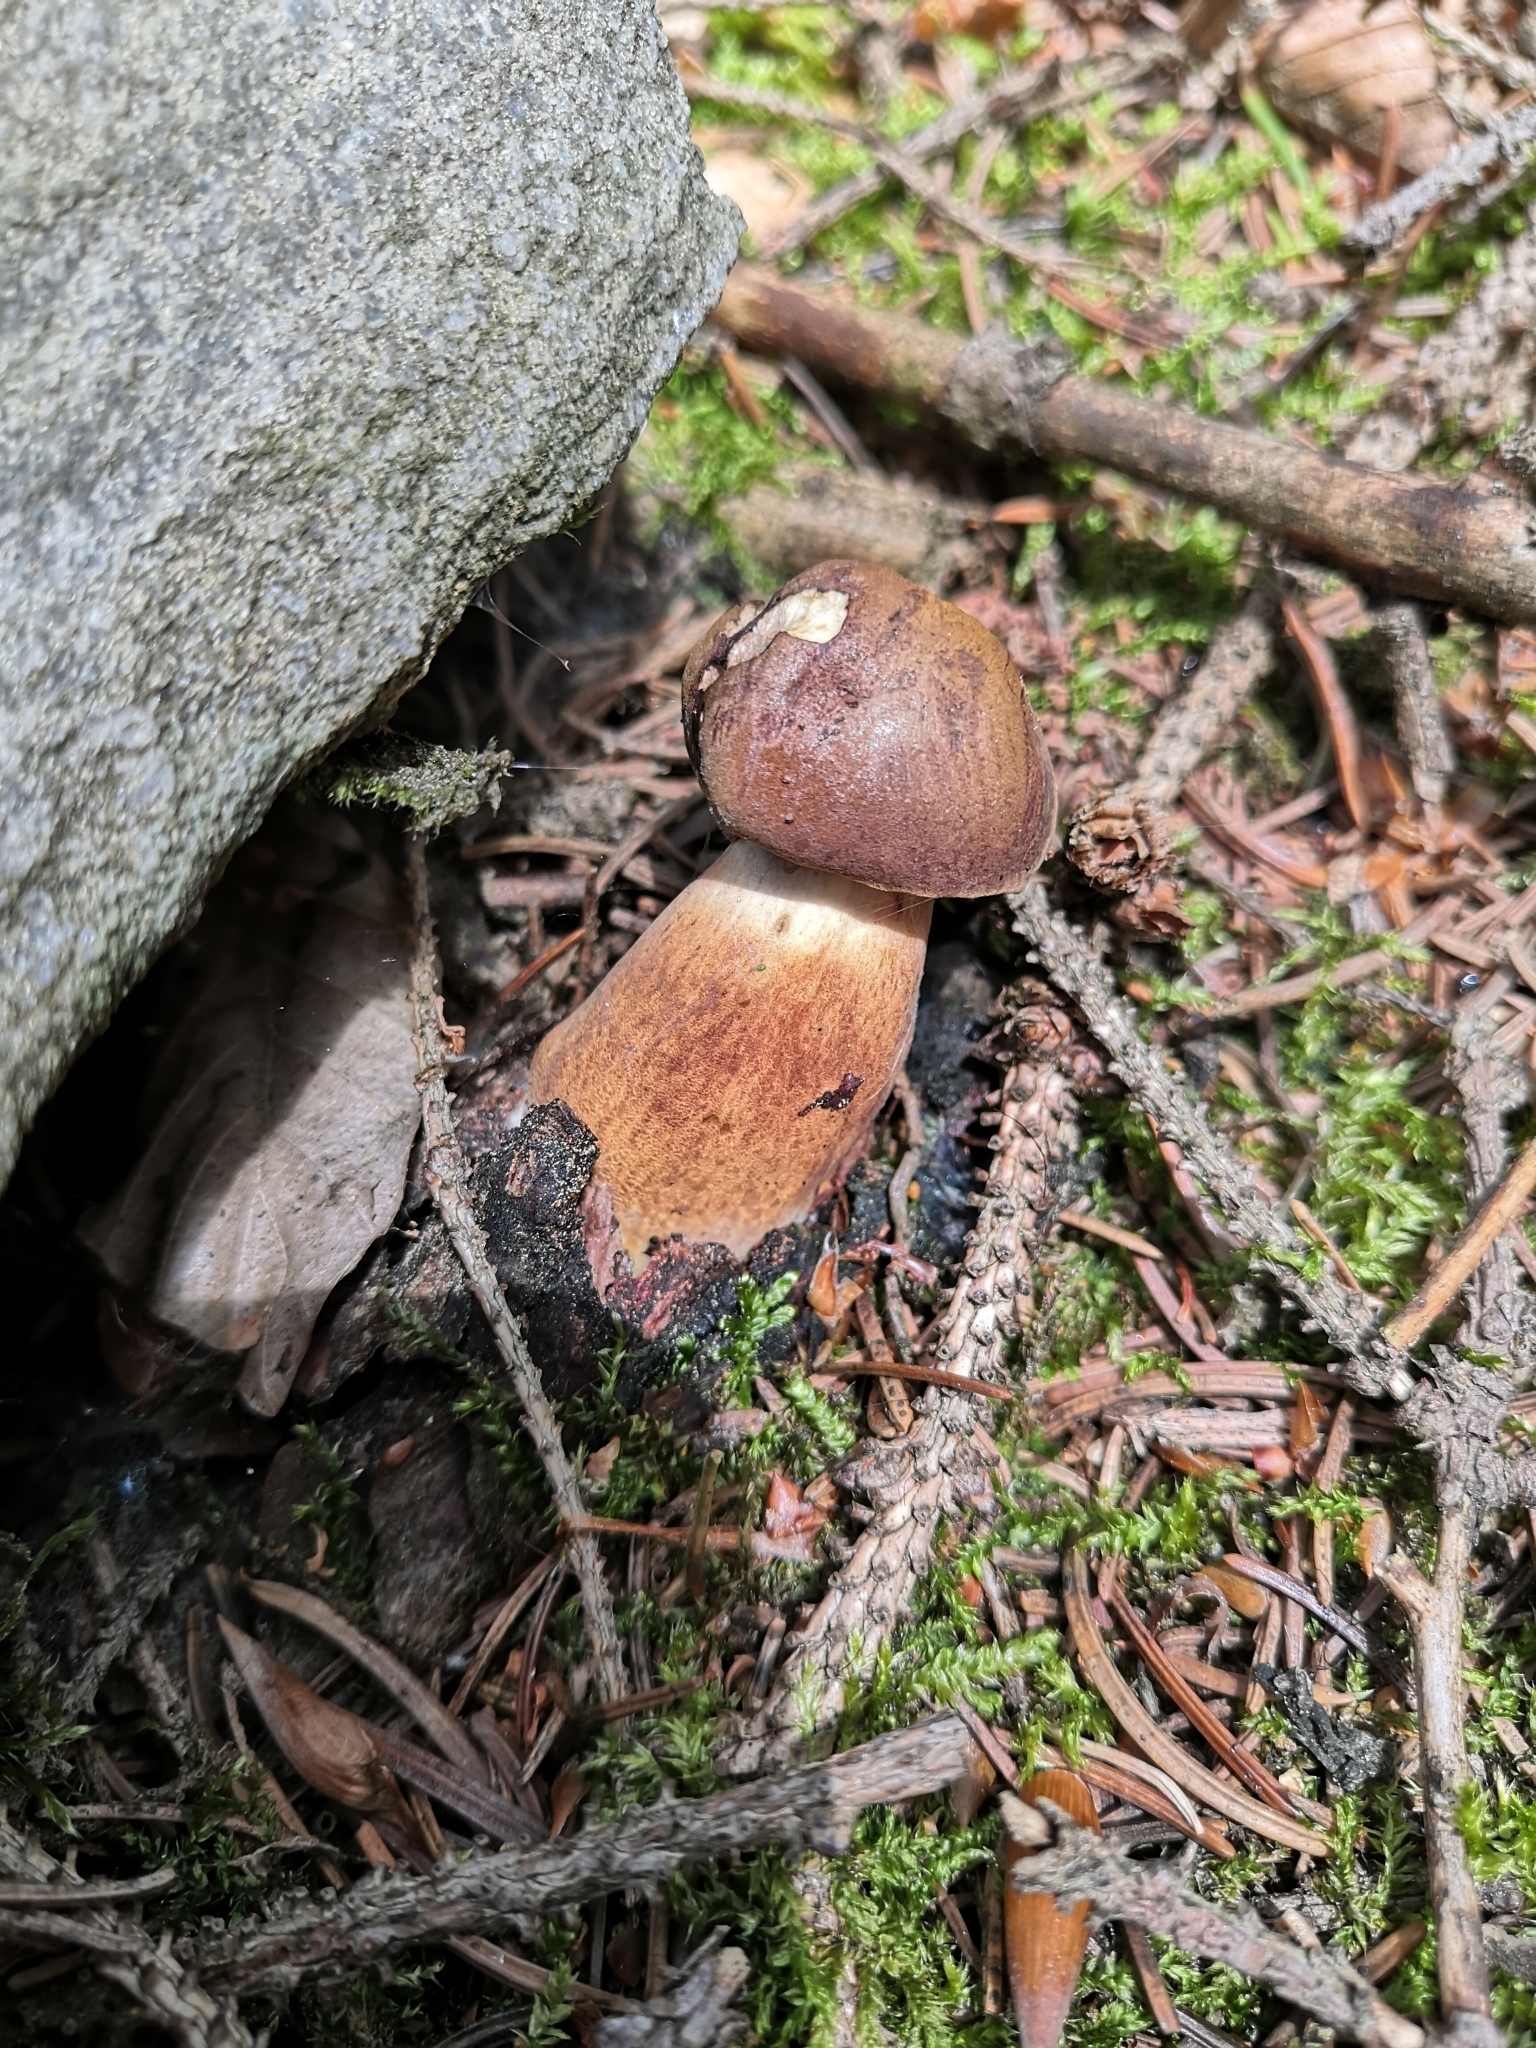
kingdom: Fungi
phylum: Basidiomycota
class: Agaricomycetes
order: Boletales
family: Boletaceae
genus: Imleria
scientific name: Imleria badia
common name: Bay bolete
